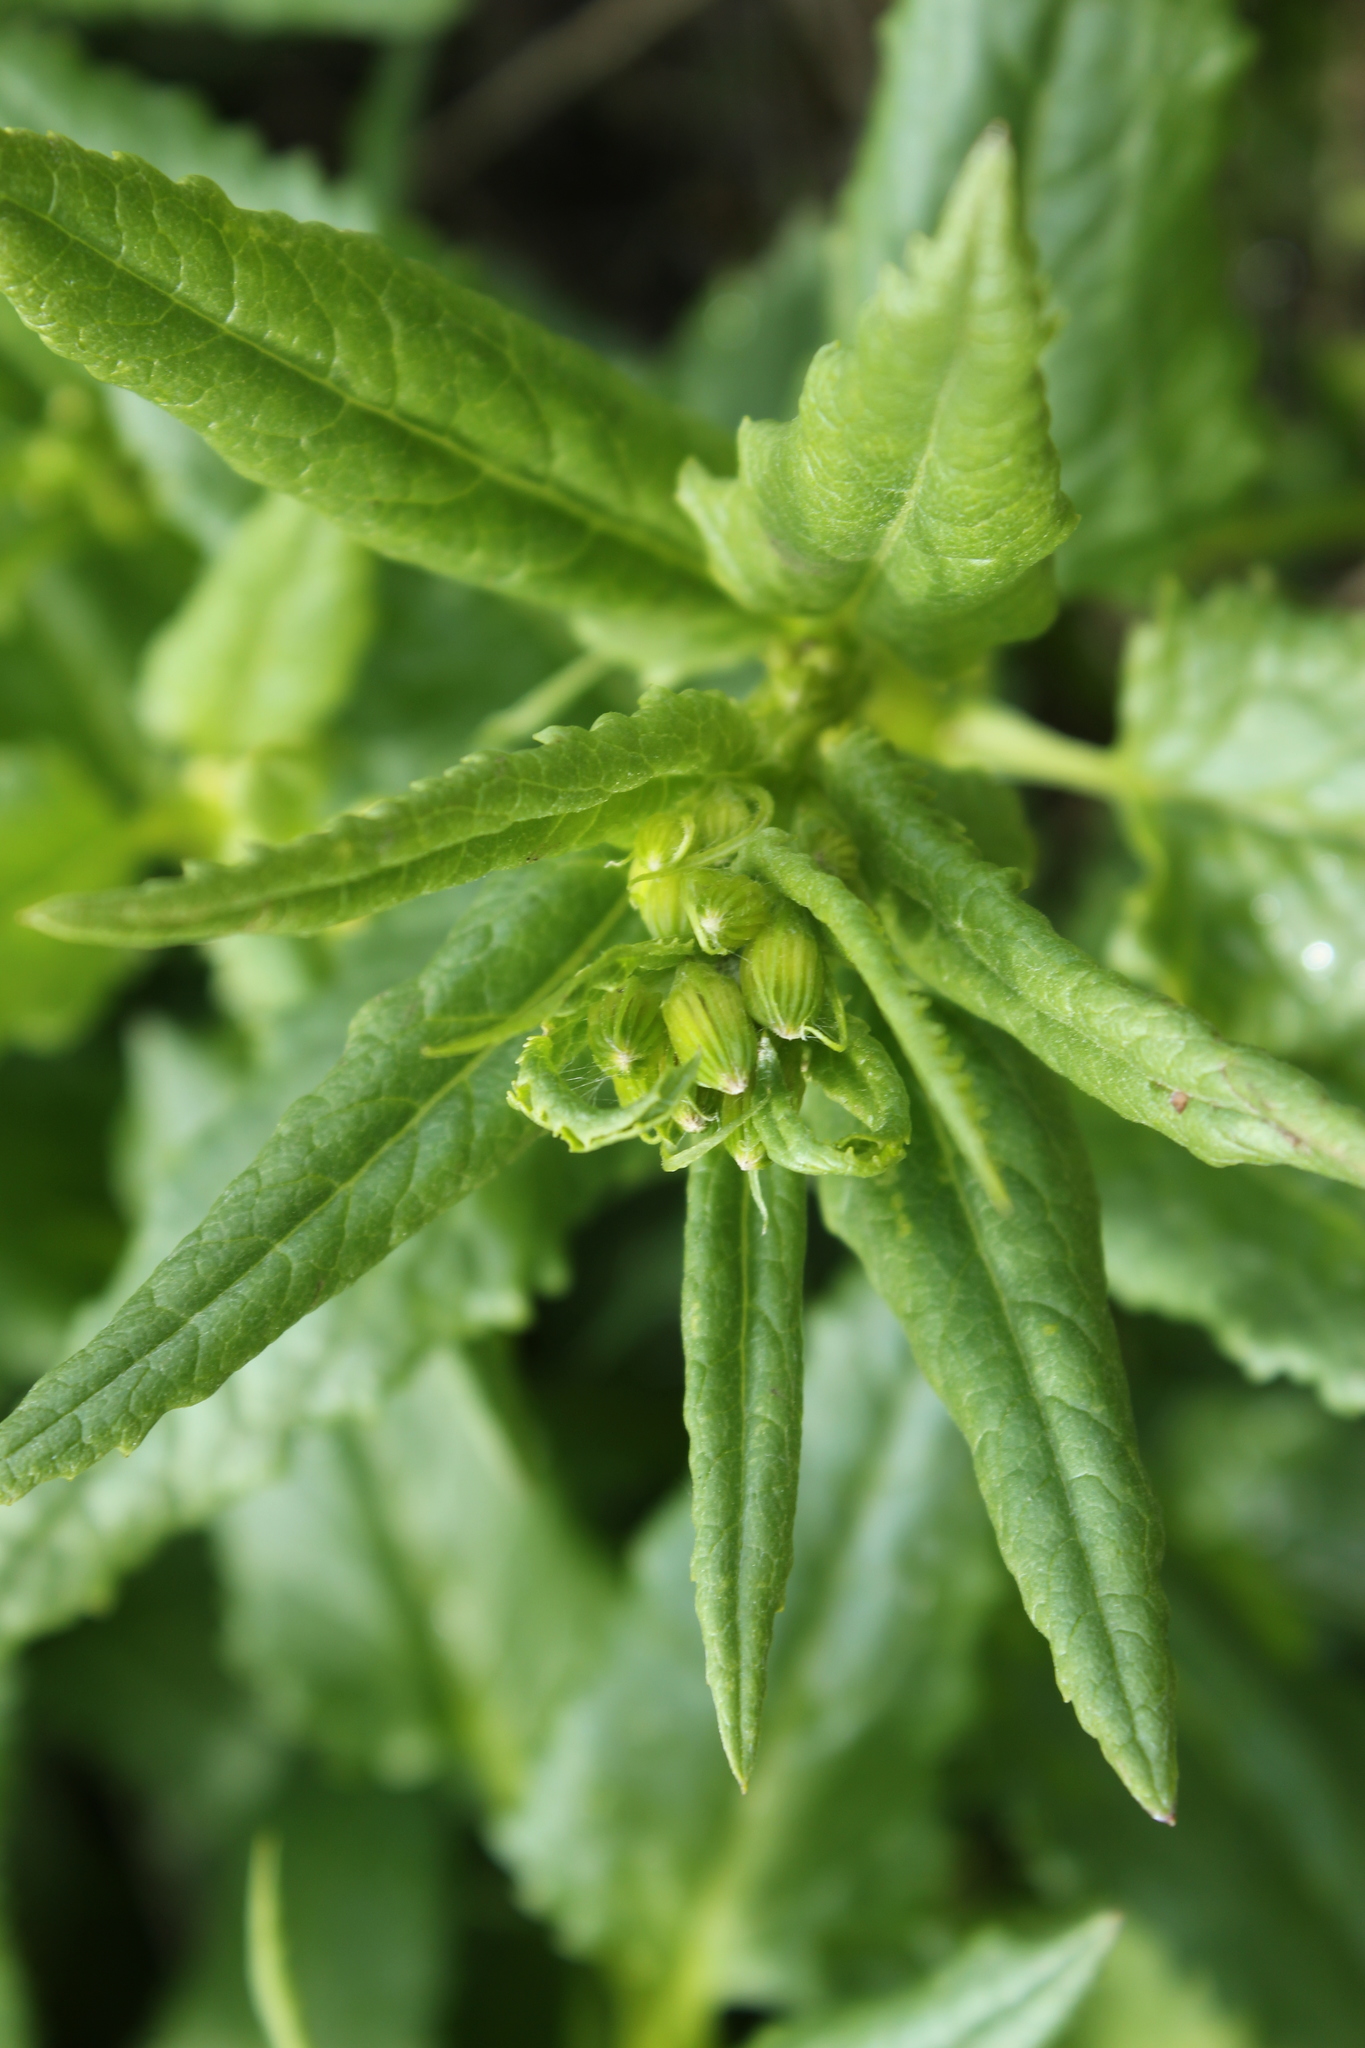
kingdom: Plantae
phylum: Tracheophyta
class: Magnoliopsida
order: Asterales
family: Asteraceae
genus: Senecio
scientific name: Senecio triangularis
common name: Arrowleaf butterweed
